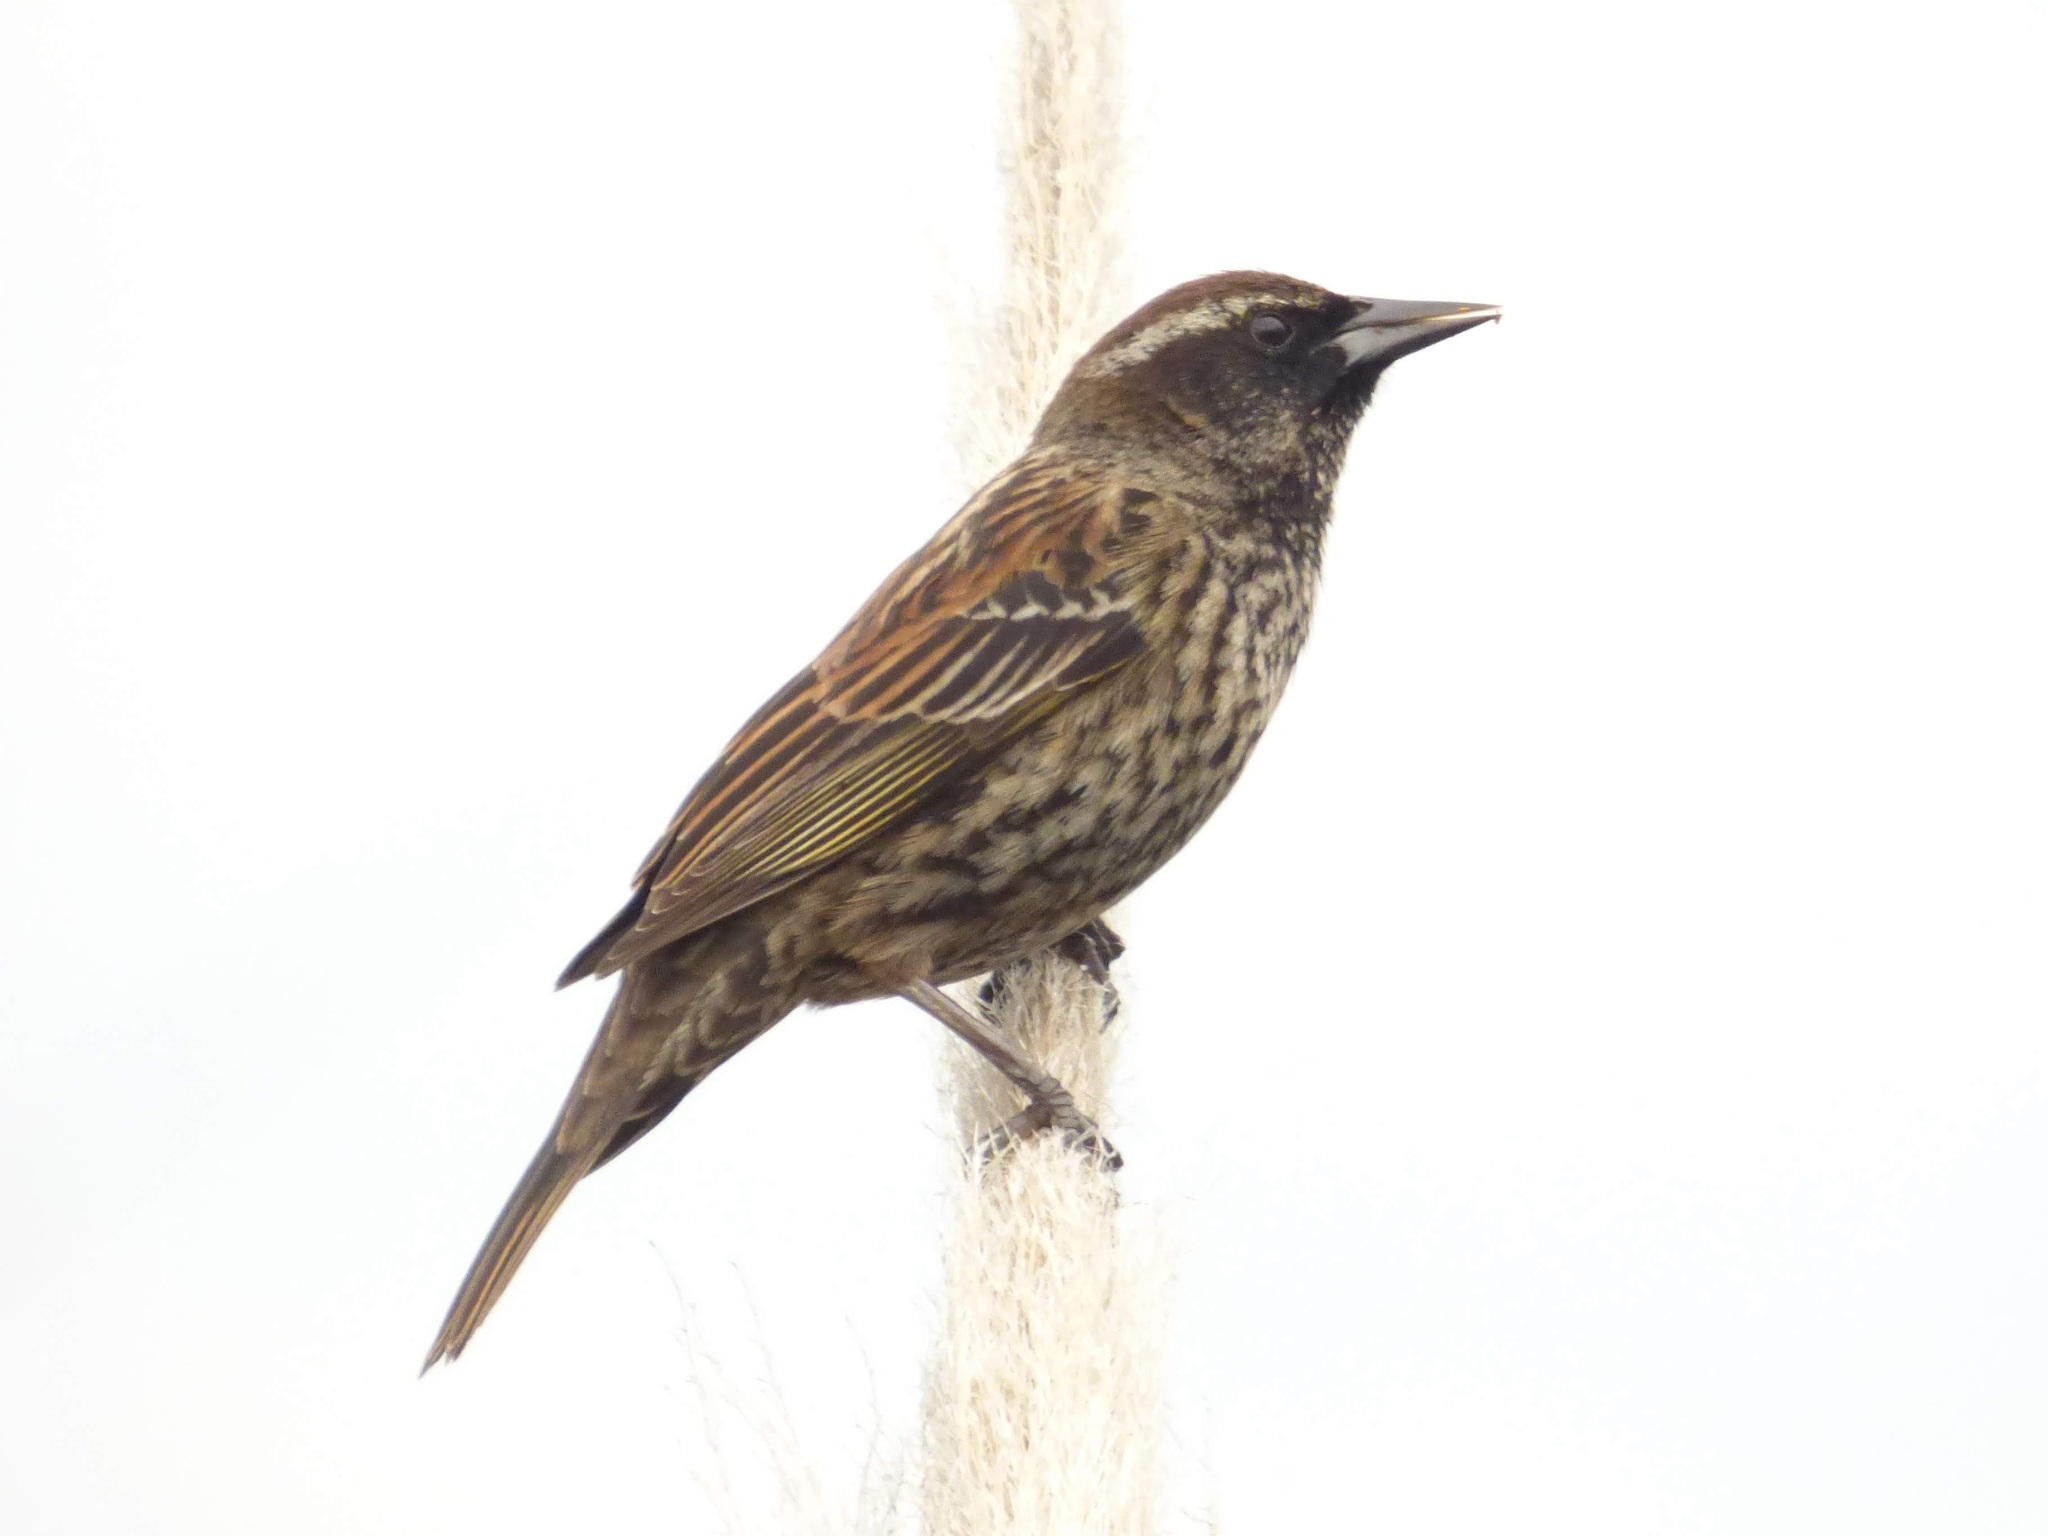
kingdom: Animalia
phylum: Chordata
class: Aves
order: Passeriformes
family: Icteridae
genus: Agelasticus
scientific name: Agelasticus thilius
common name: Yellow-winged blackbird
